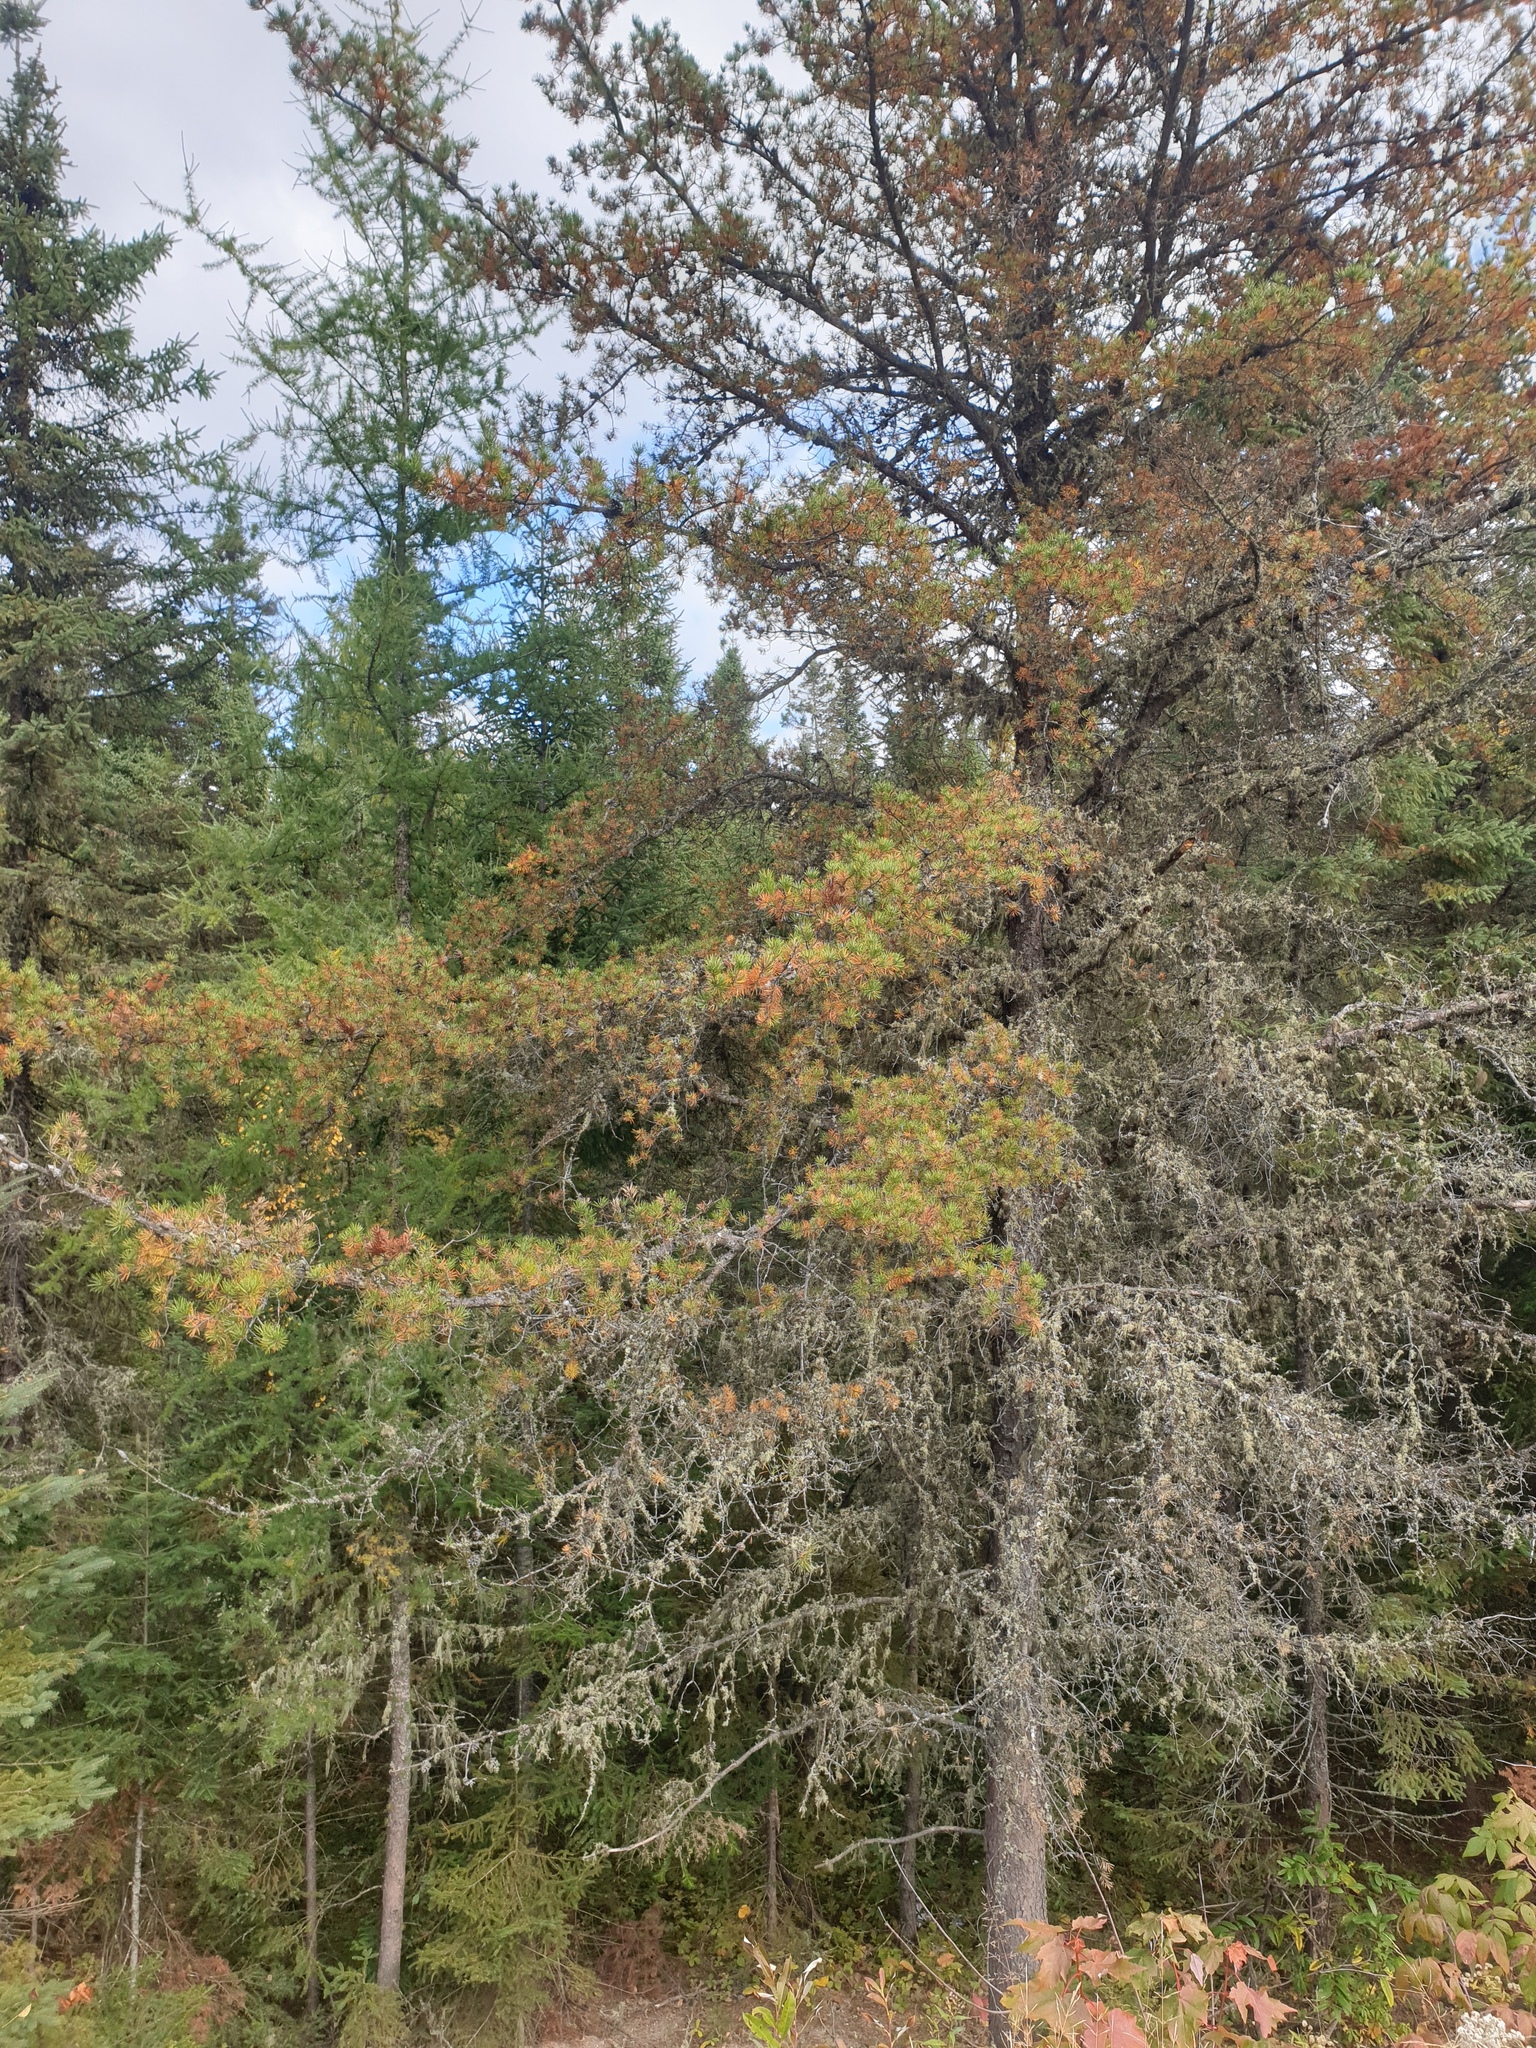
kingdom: Plantae
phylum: Tracheophyta
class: Pinopsida
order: Pinales
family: Pinaceae
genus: Pinus
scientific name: Pinus banksiana
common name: Jack pine
